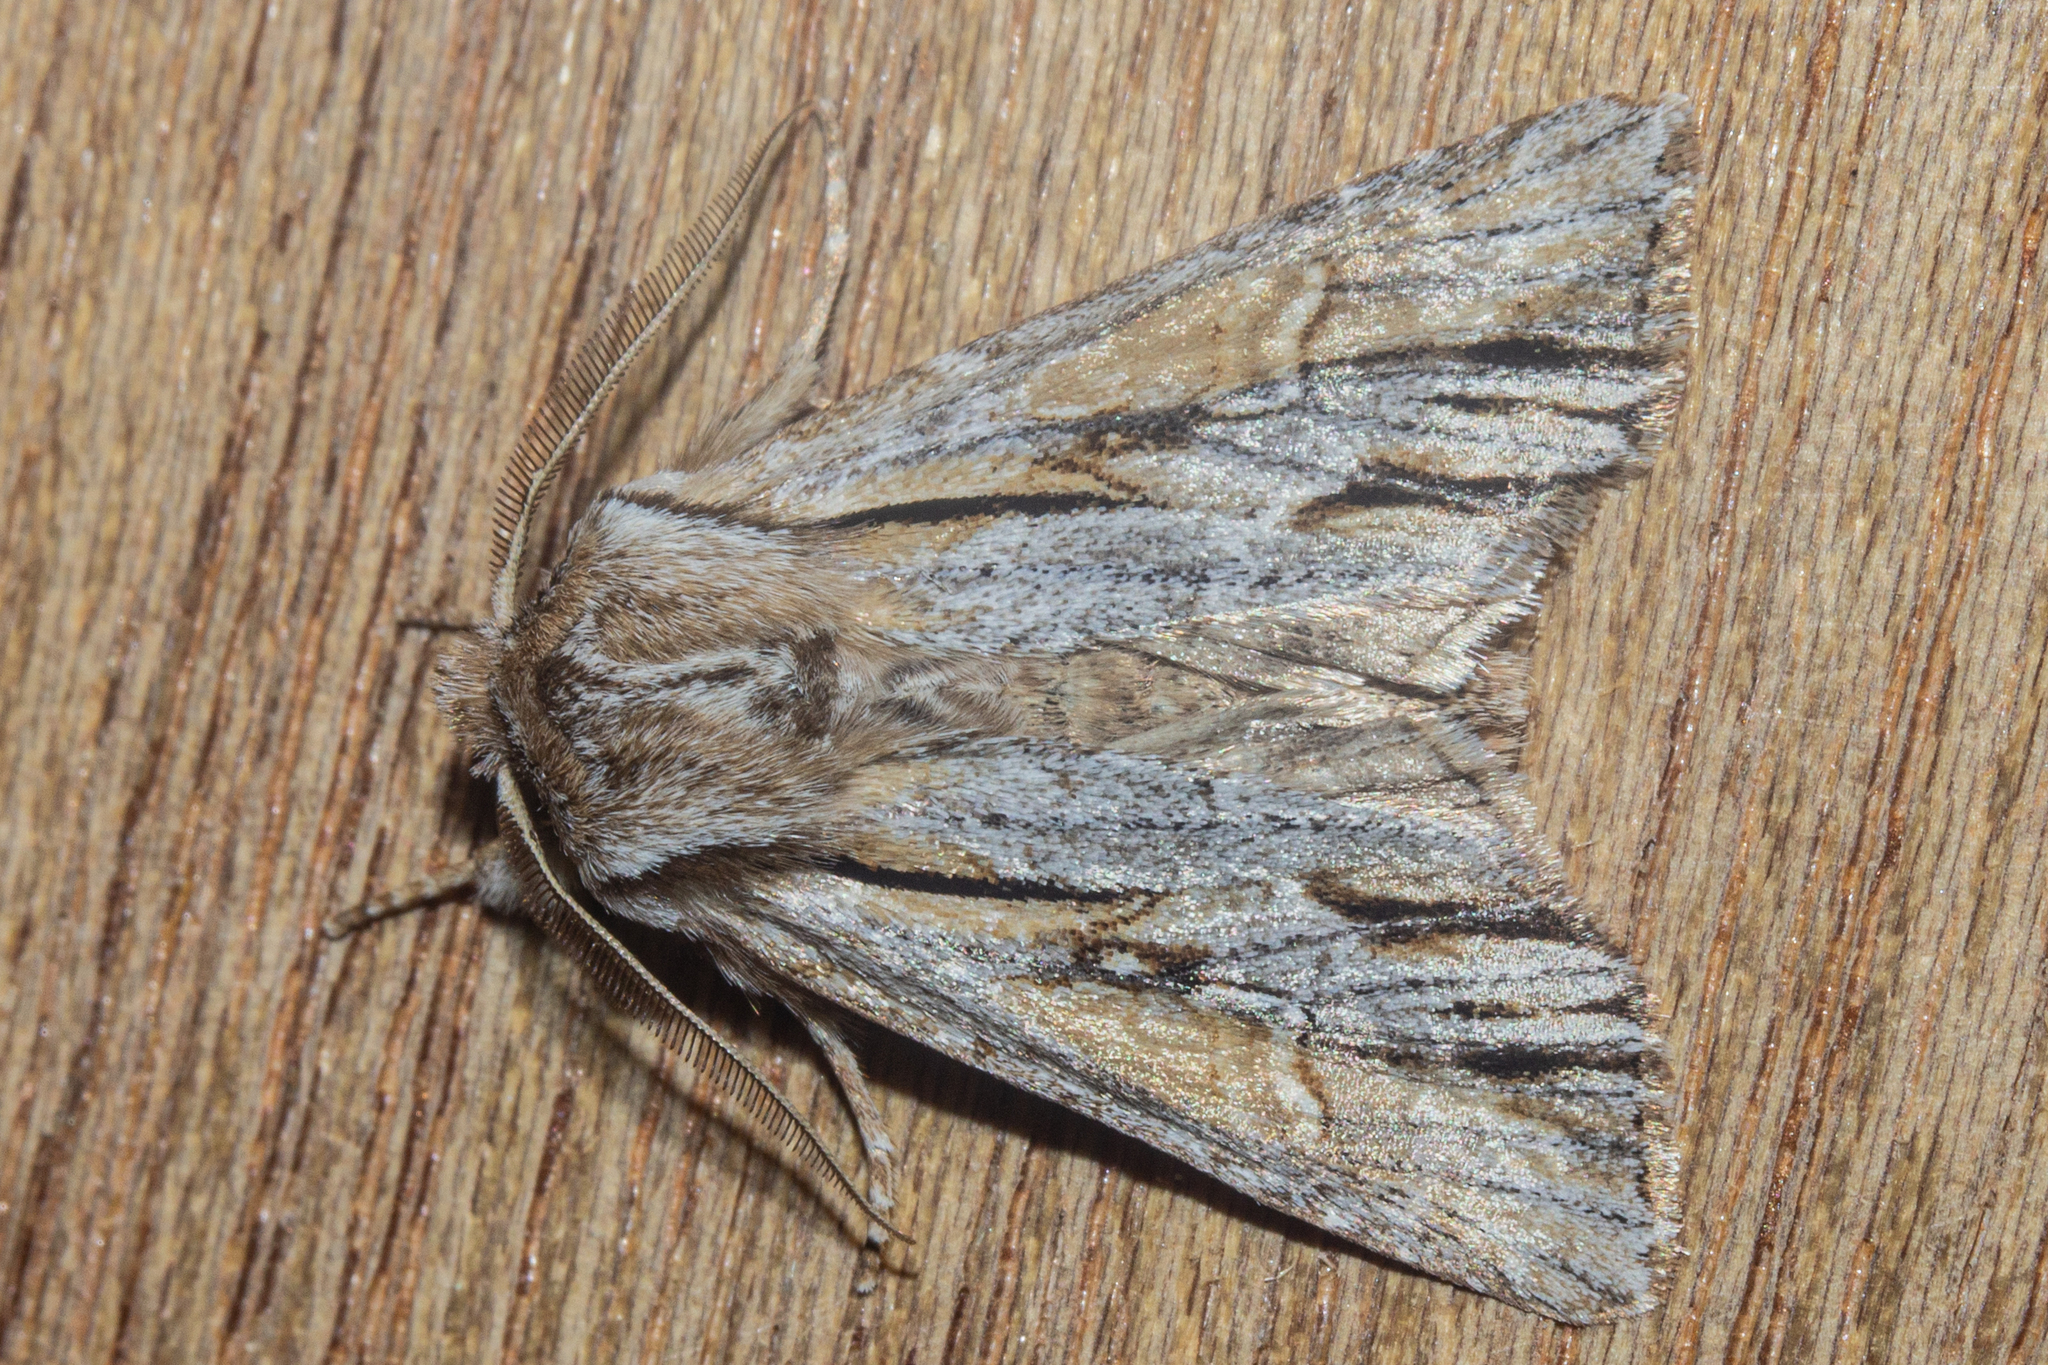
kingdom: Animalia
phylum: Arthropoda
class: Insecta
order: Lepidoptera
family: Noctuidae
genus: Ichneutica
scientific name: Ichneutica
